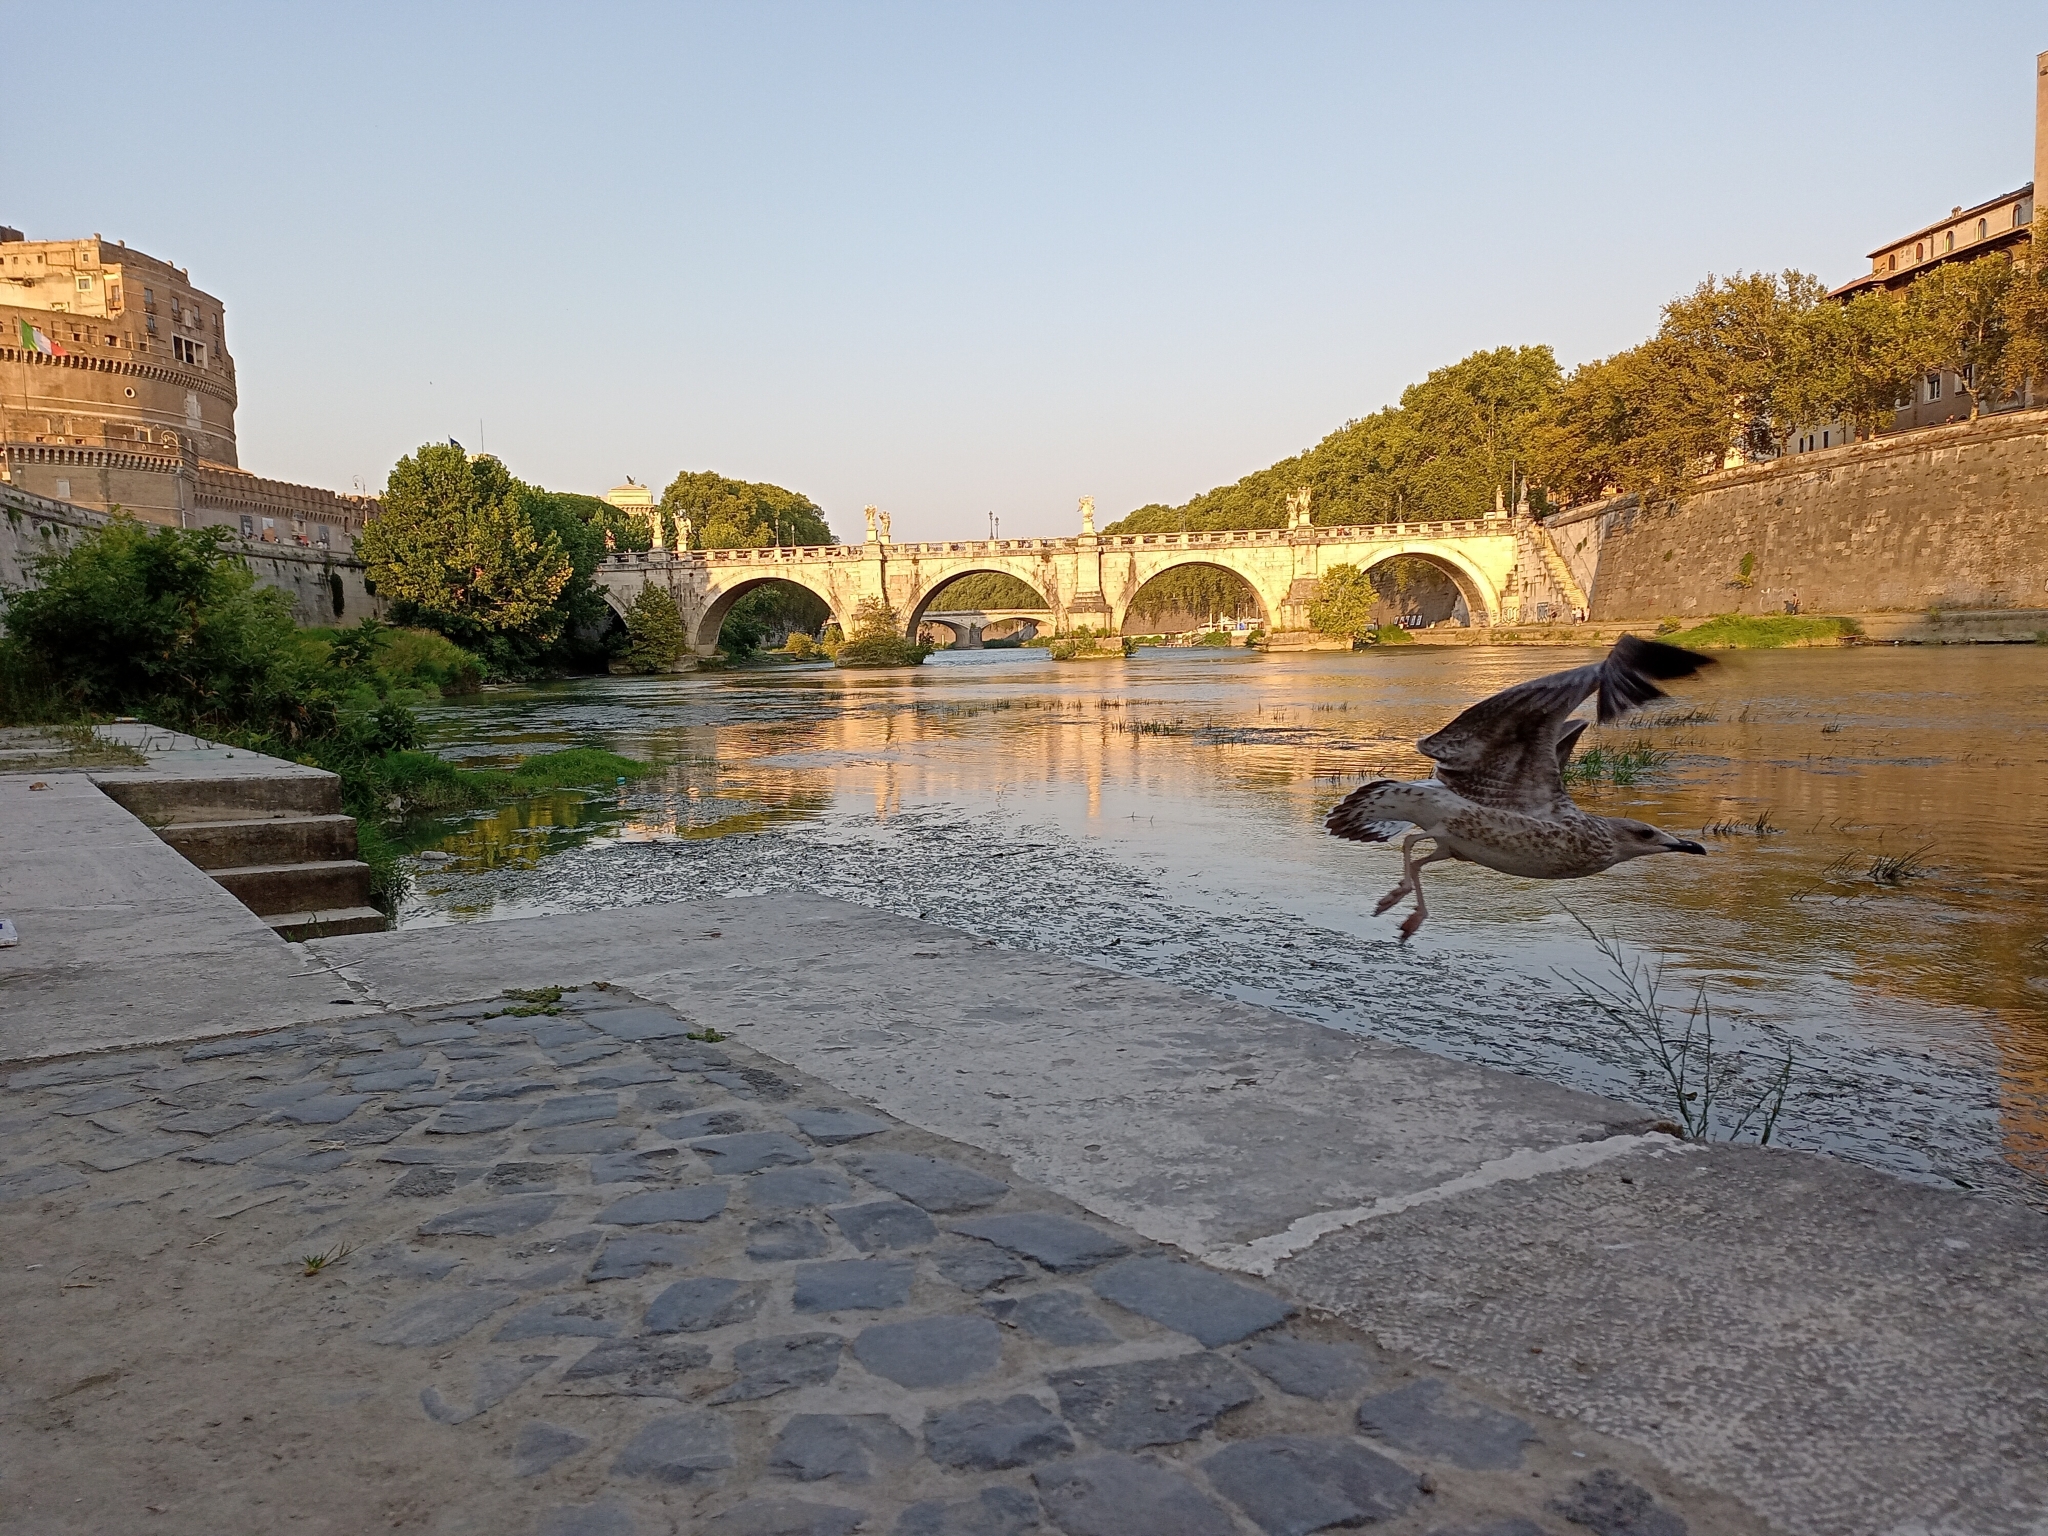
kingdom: Animalia
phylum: Chordata
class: Aves
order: Charadriiformes
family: Laridae
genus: Larus
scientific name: Larus michahellis
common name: Yellow-legged gull
